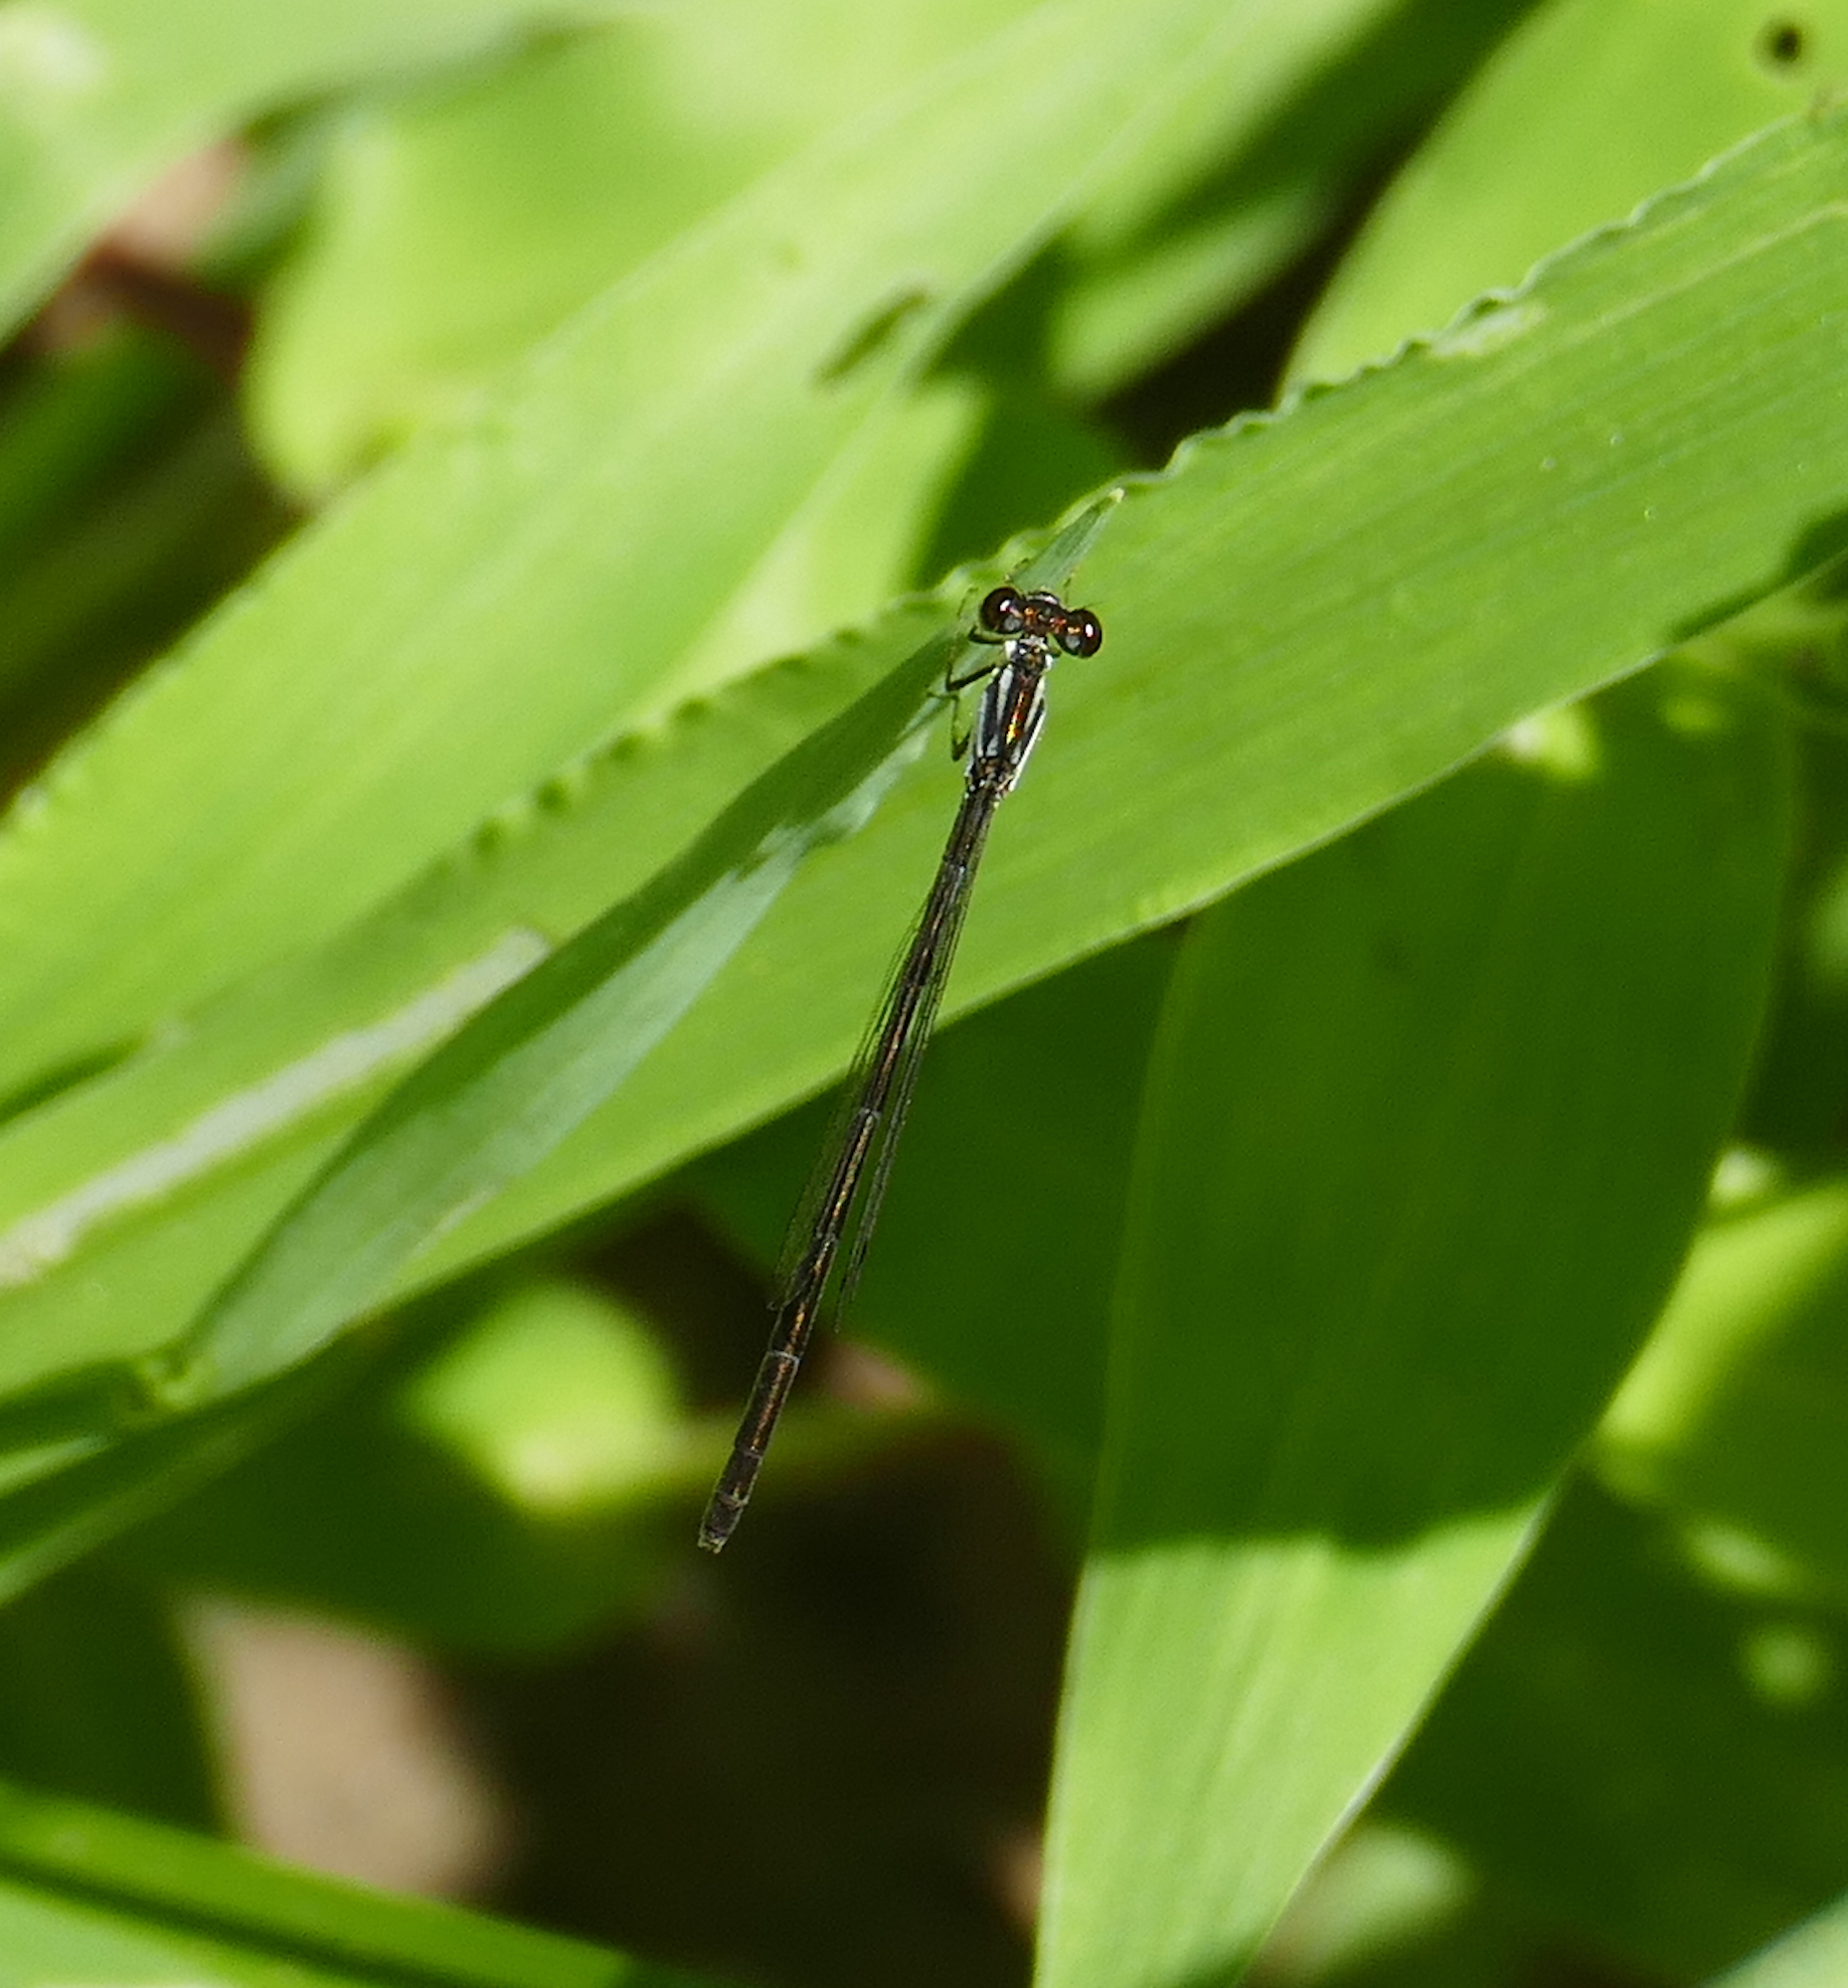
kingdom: Animalia
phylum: Arthropoda
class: Insecta
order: Odonata
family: Coenagrionidae
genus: Ischnura
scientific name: Ischnura posita
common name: Fragile forktail
